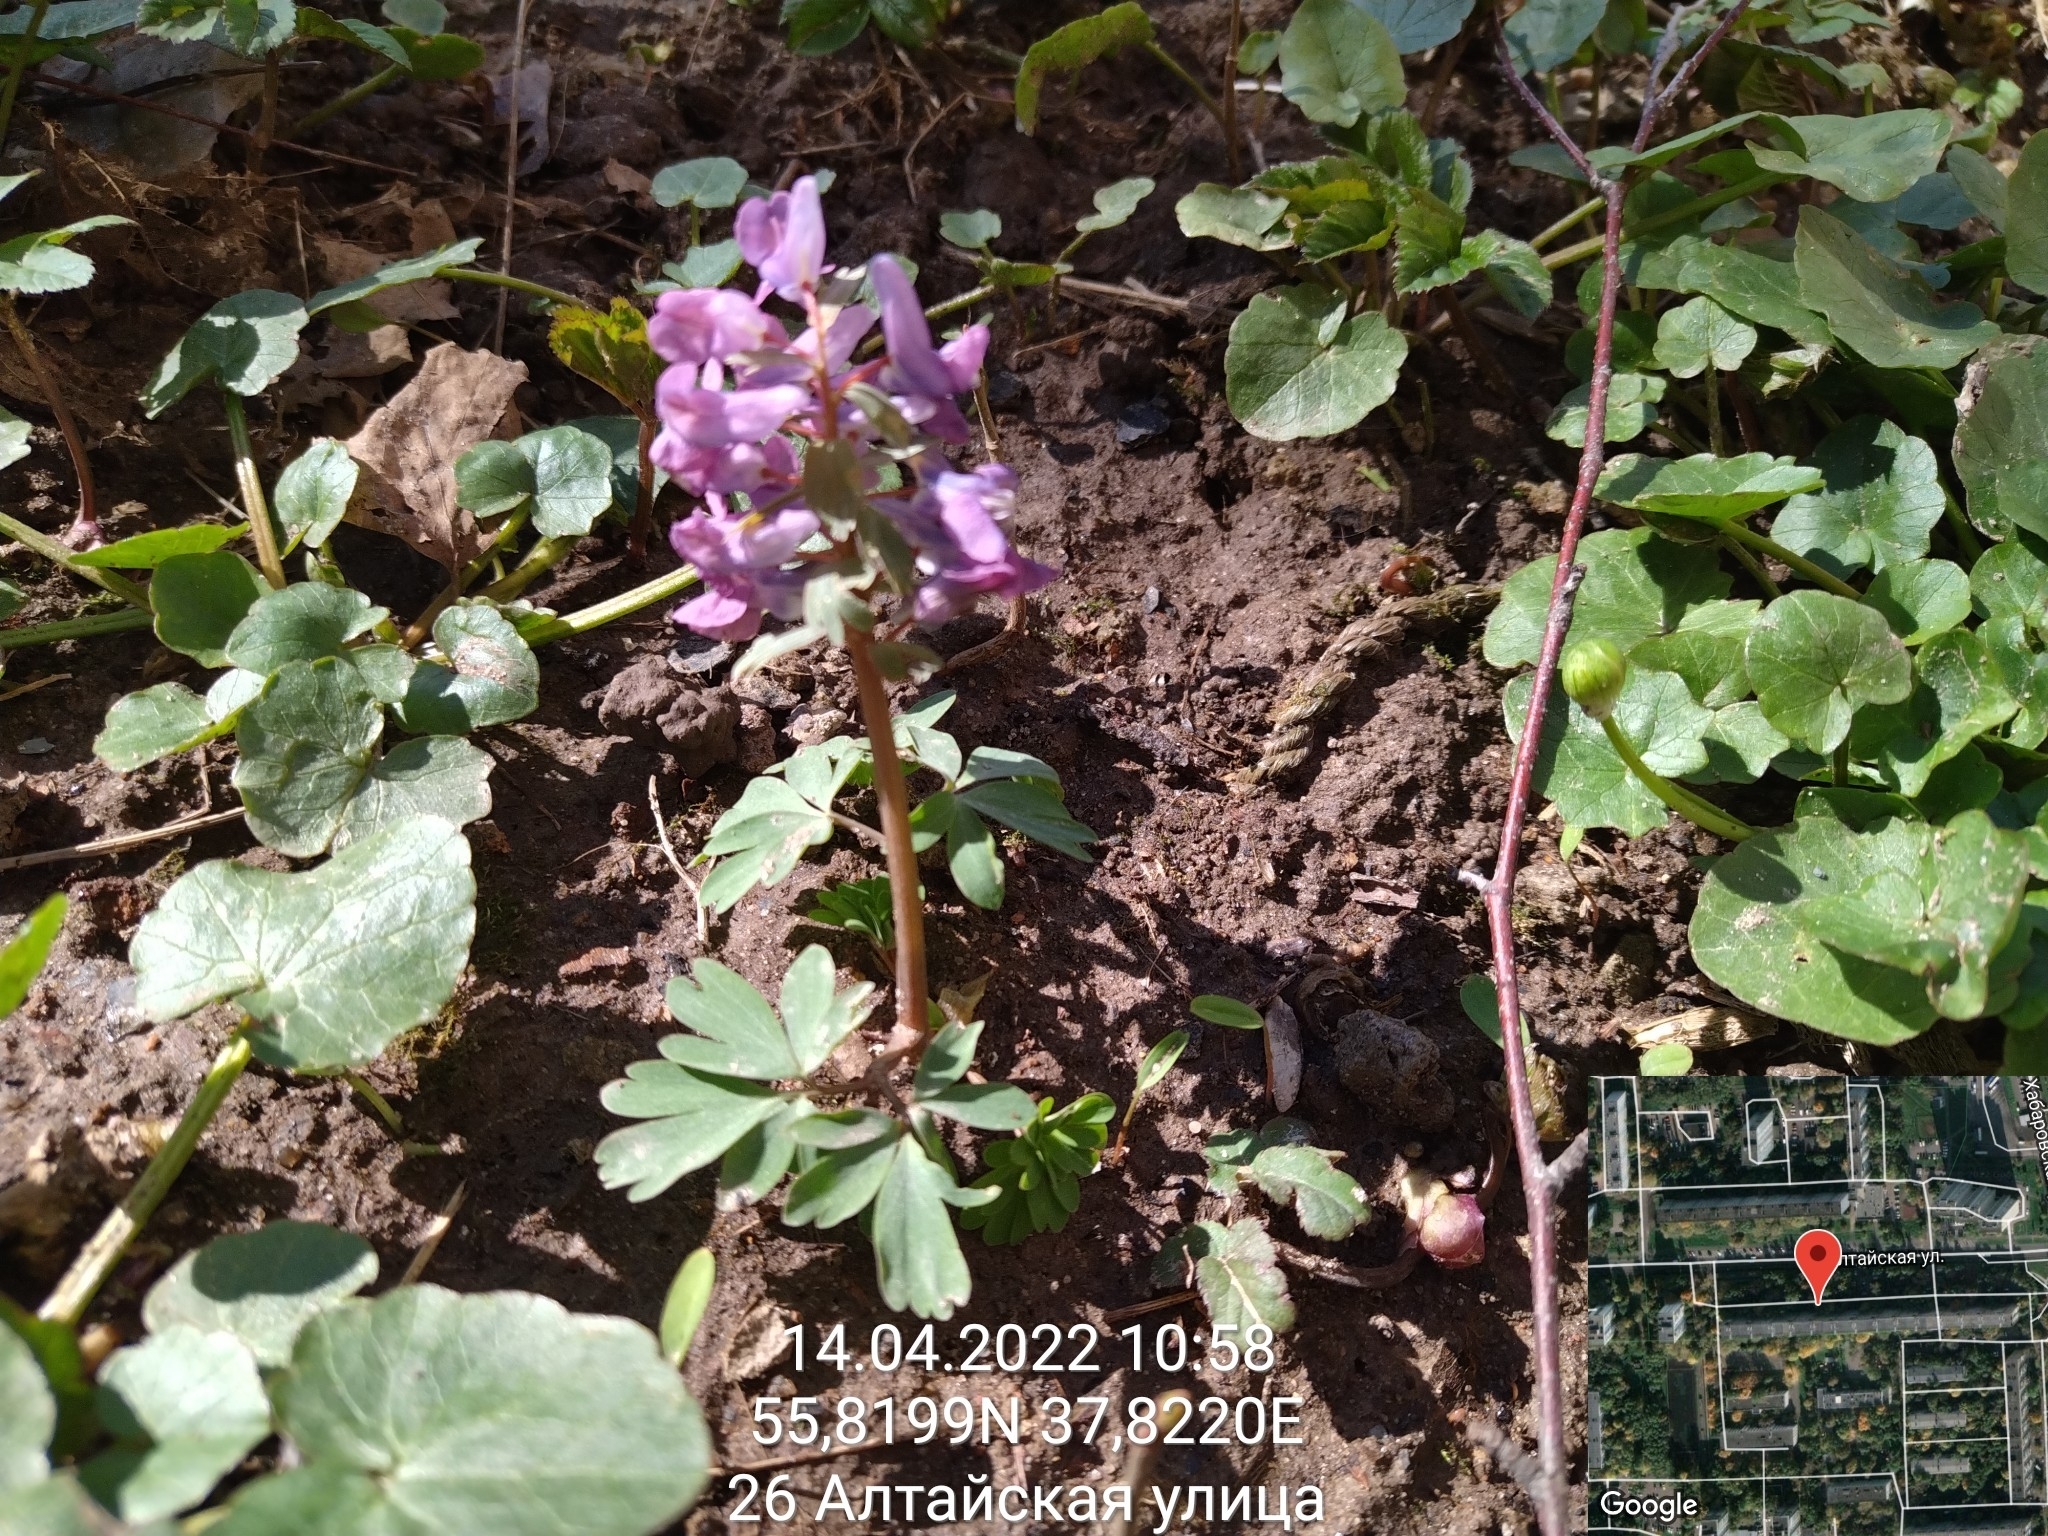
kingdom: Plantae
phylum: Tracheophyta
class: Magnoliopsida
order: Ranunculales
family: Papaveraceae
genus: Corydalis
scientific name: Corydalis solida
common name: Bird-in-a-bush
